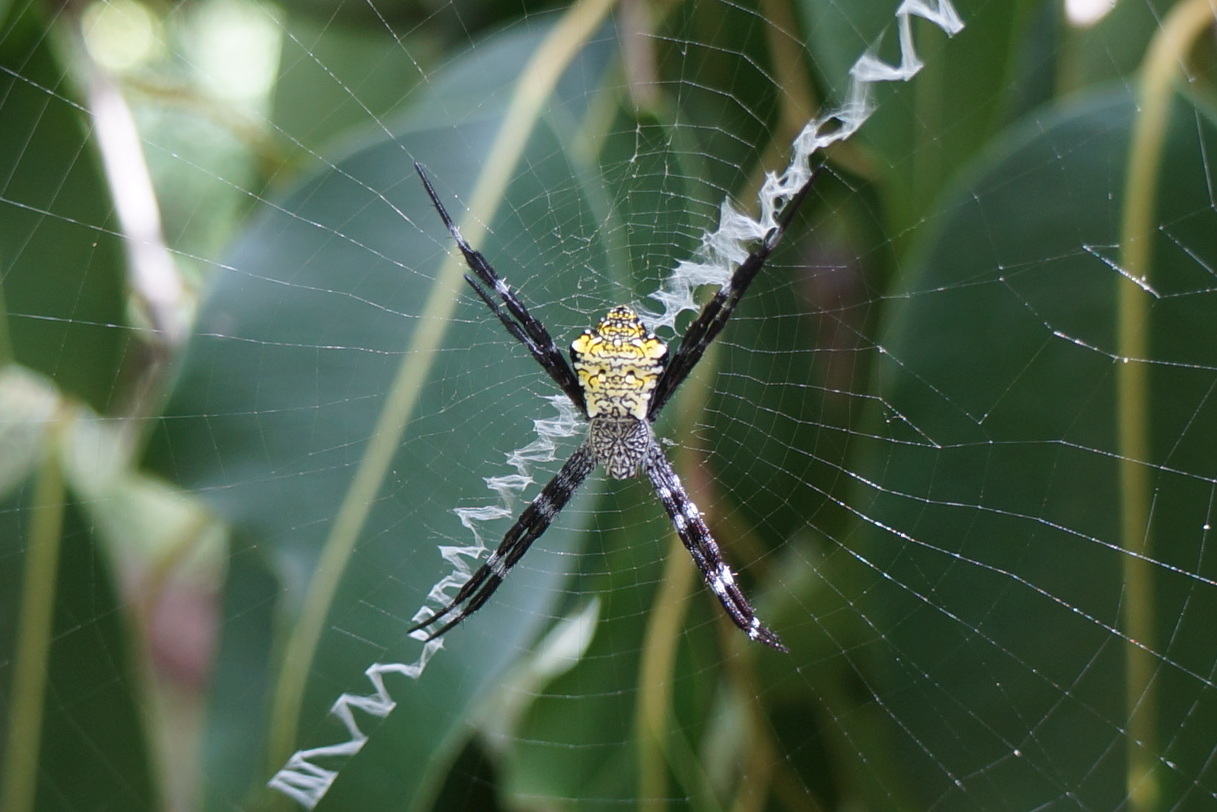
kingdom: Animalia
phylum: Arthropoda
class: Arachnida
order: Araneae
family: Araneidae
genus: Argiope
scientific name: Argiope appensa
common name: Garden spider
